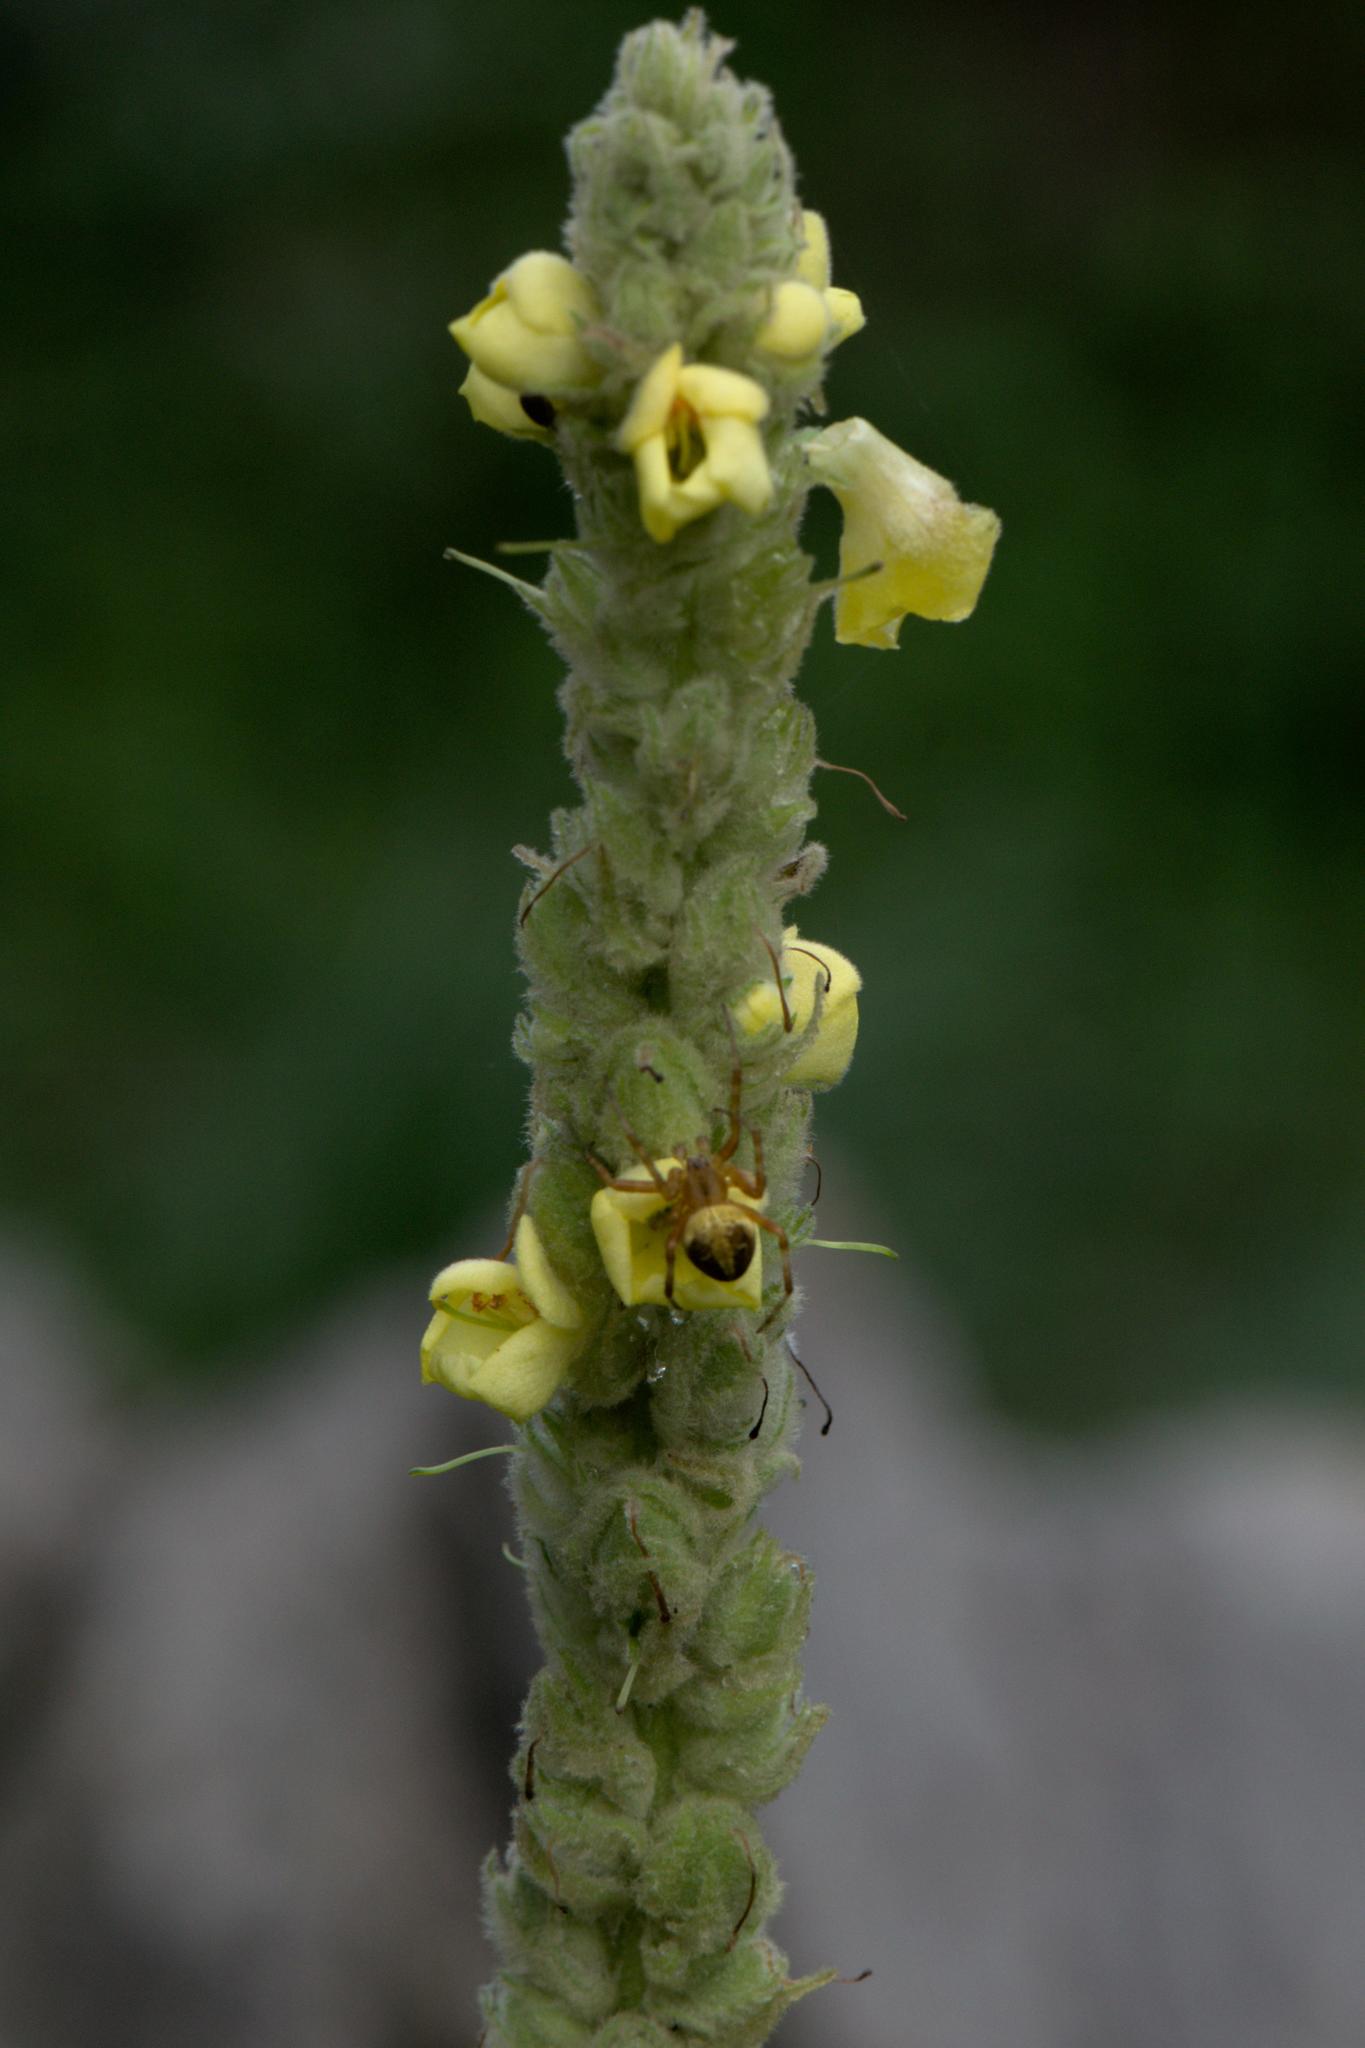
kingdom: Plantae
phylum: Tracheophyta
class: Magnoliopsida
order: Lamiales
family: Scrophulariaceae
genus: Verbascum
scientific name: Verbascum thapsus
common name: Common mullein
